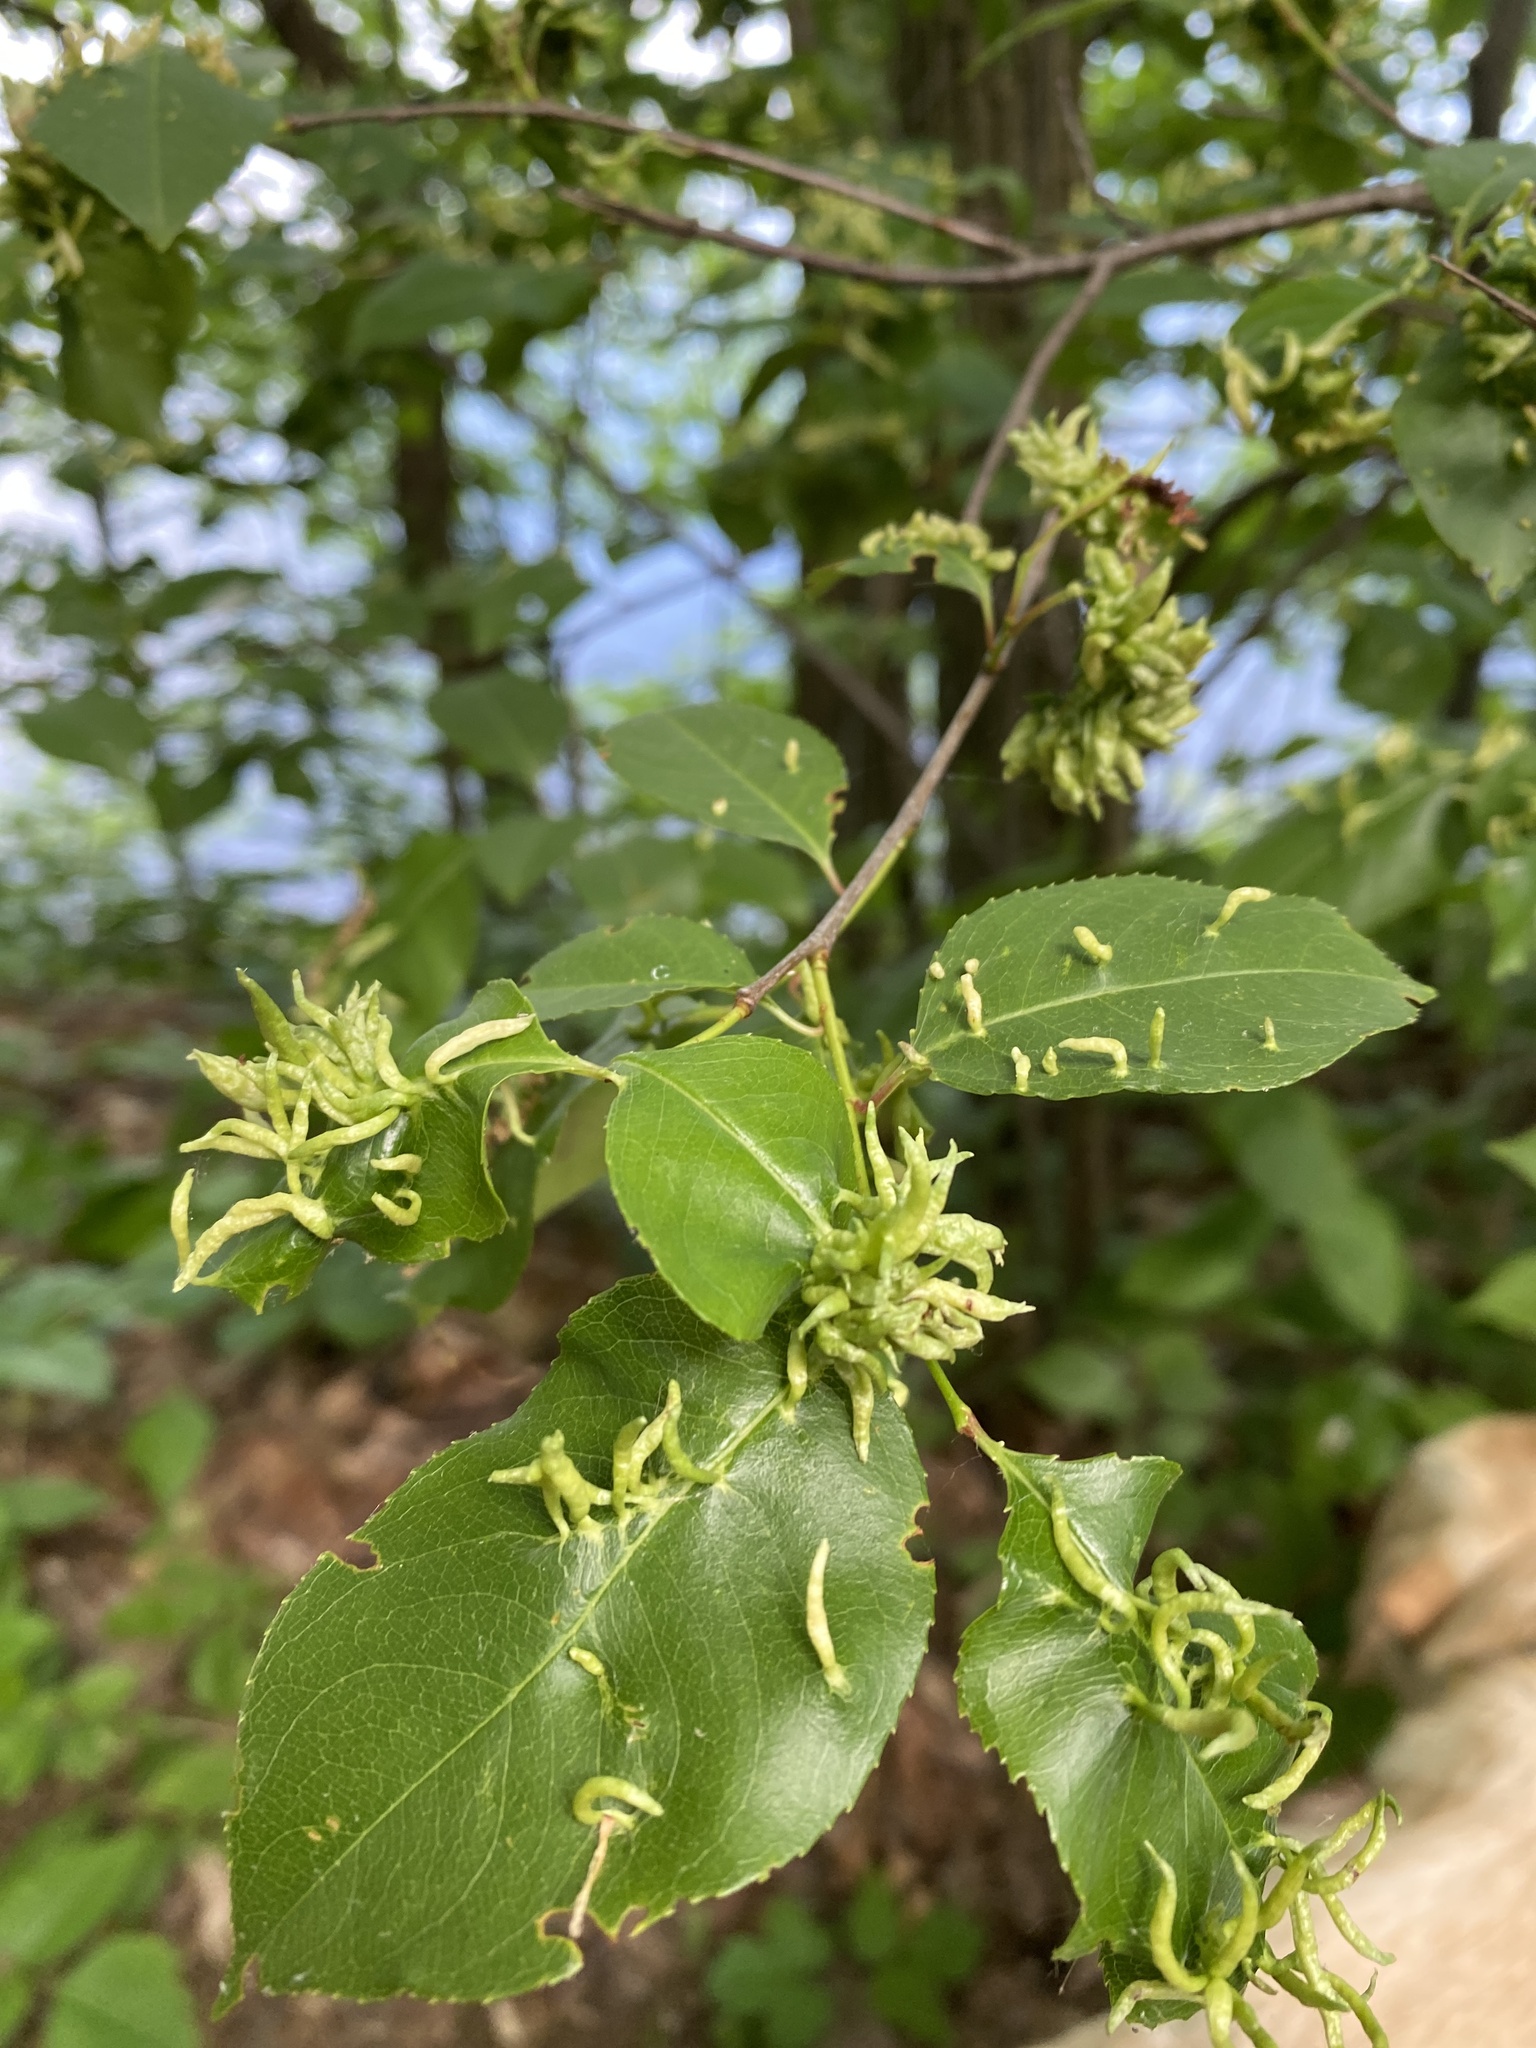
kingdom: Animalia
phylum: Arthropoda
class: Arachnida
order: Trombidiformes
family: Eriophyidae
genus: Eriophyes
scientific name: Eriophyes
